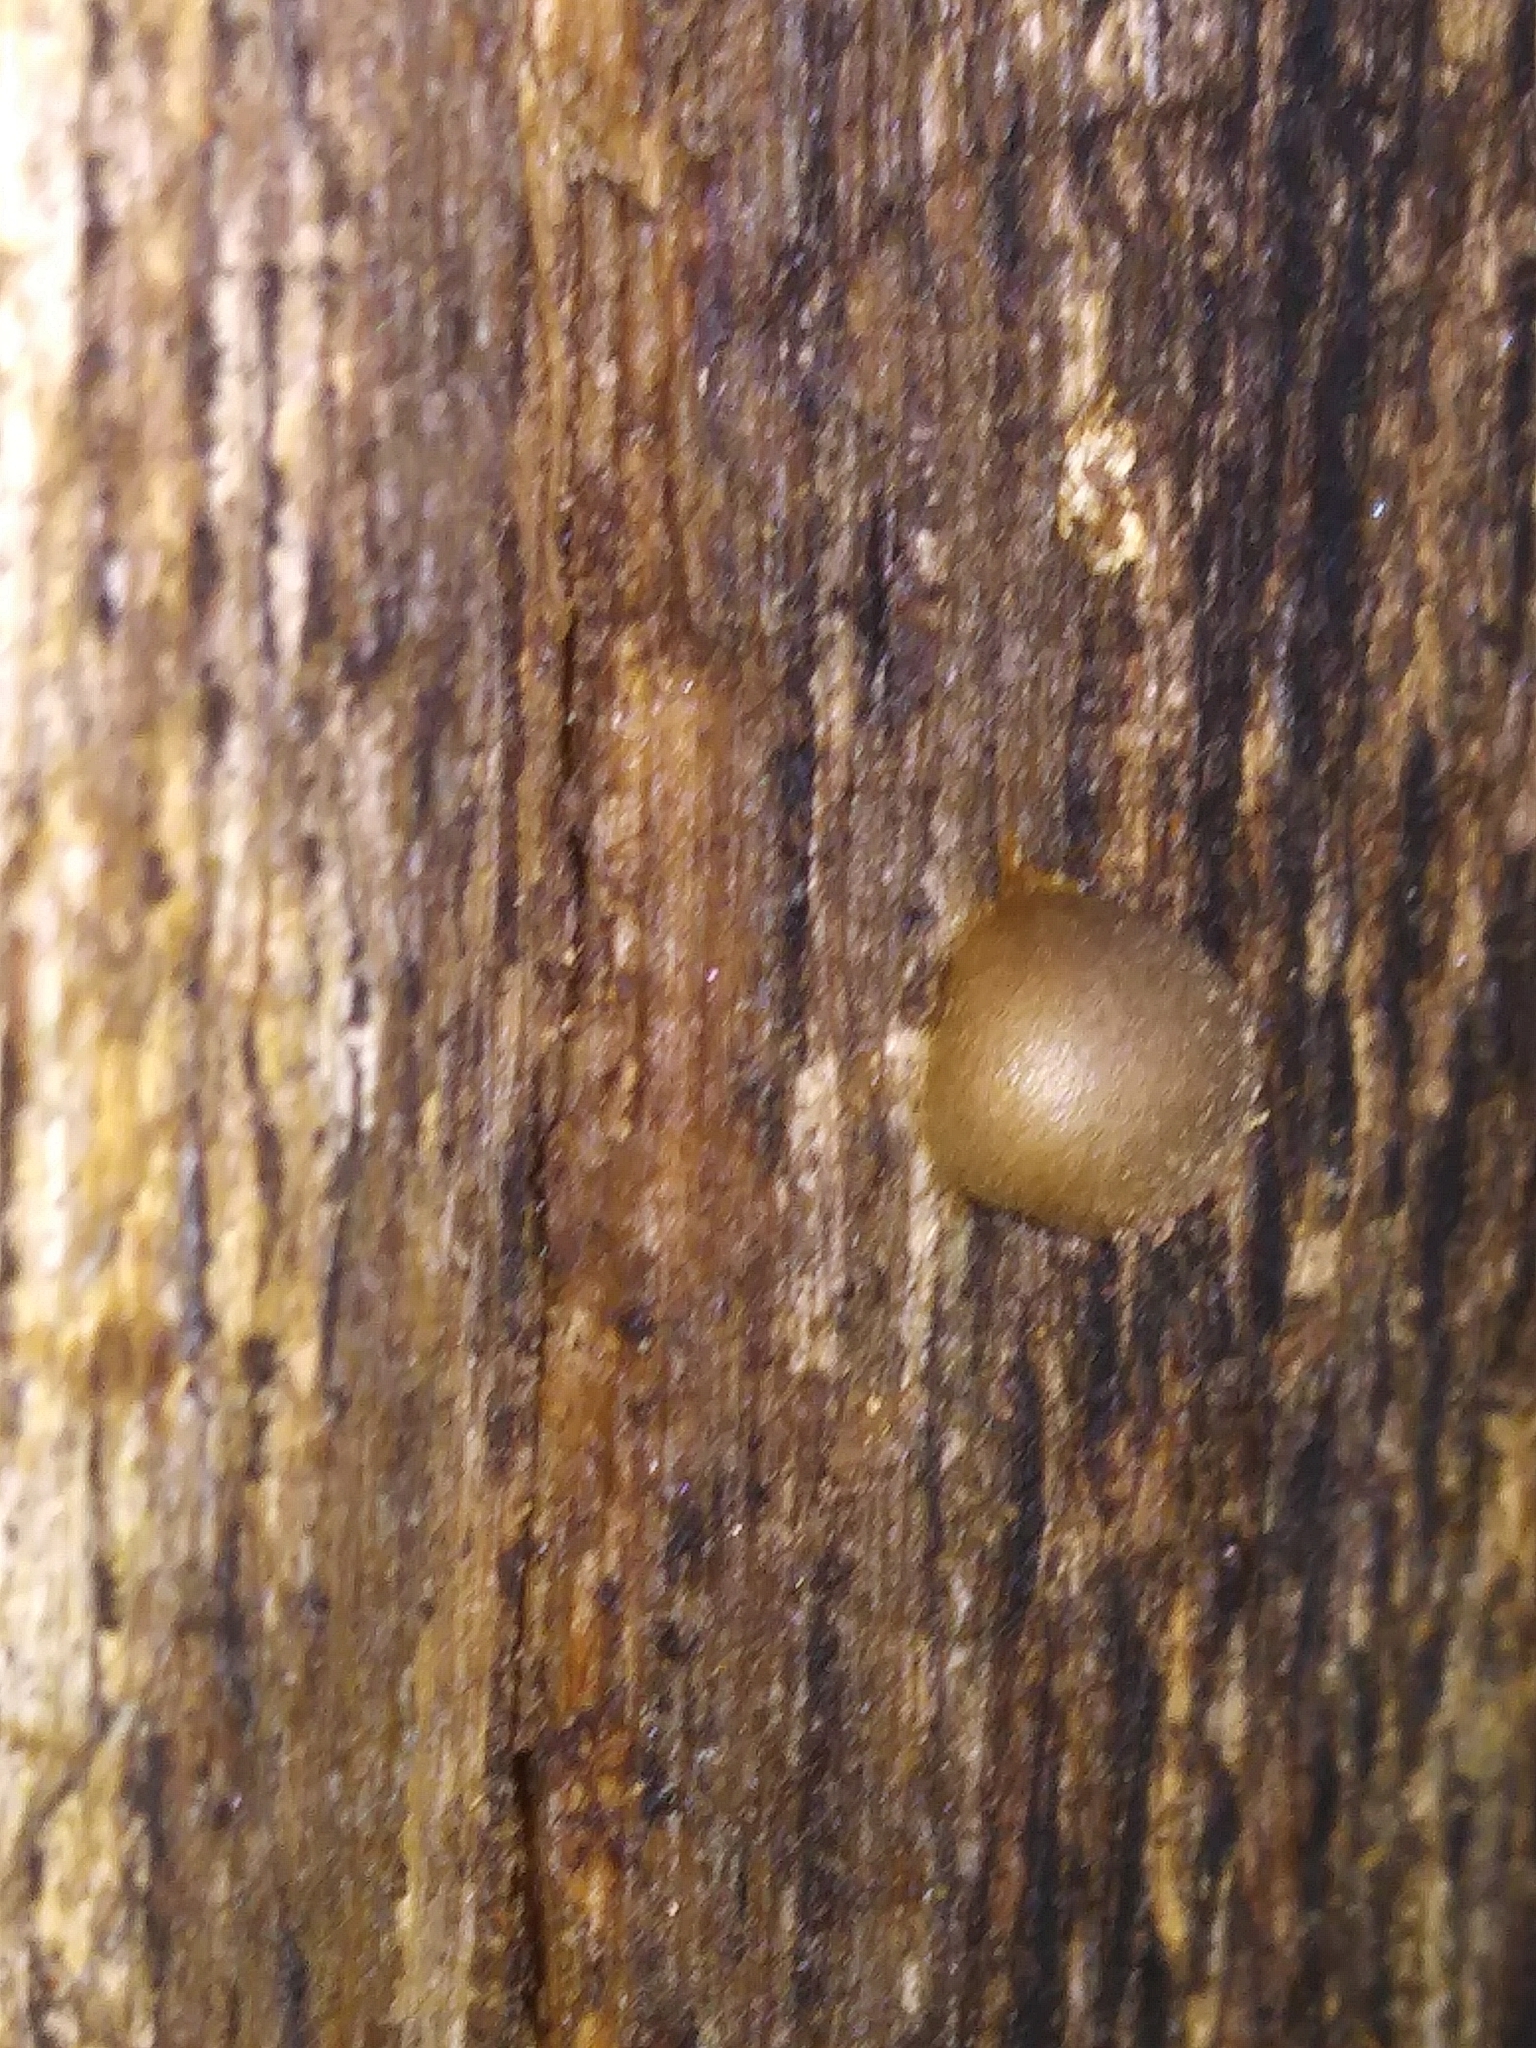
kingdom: Protozoa
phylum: Mycetozoa
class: Myxomycetes
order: Cribrariales
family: Tubiferaceae
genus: Lycogala
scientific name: Lycogala epidendrum
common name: Wolf's milk
